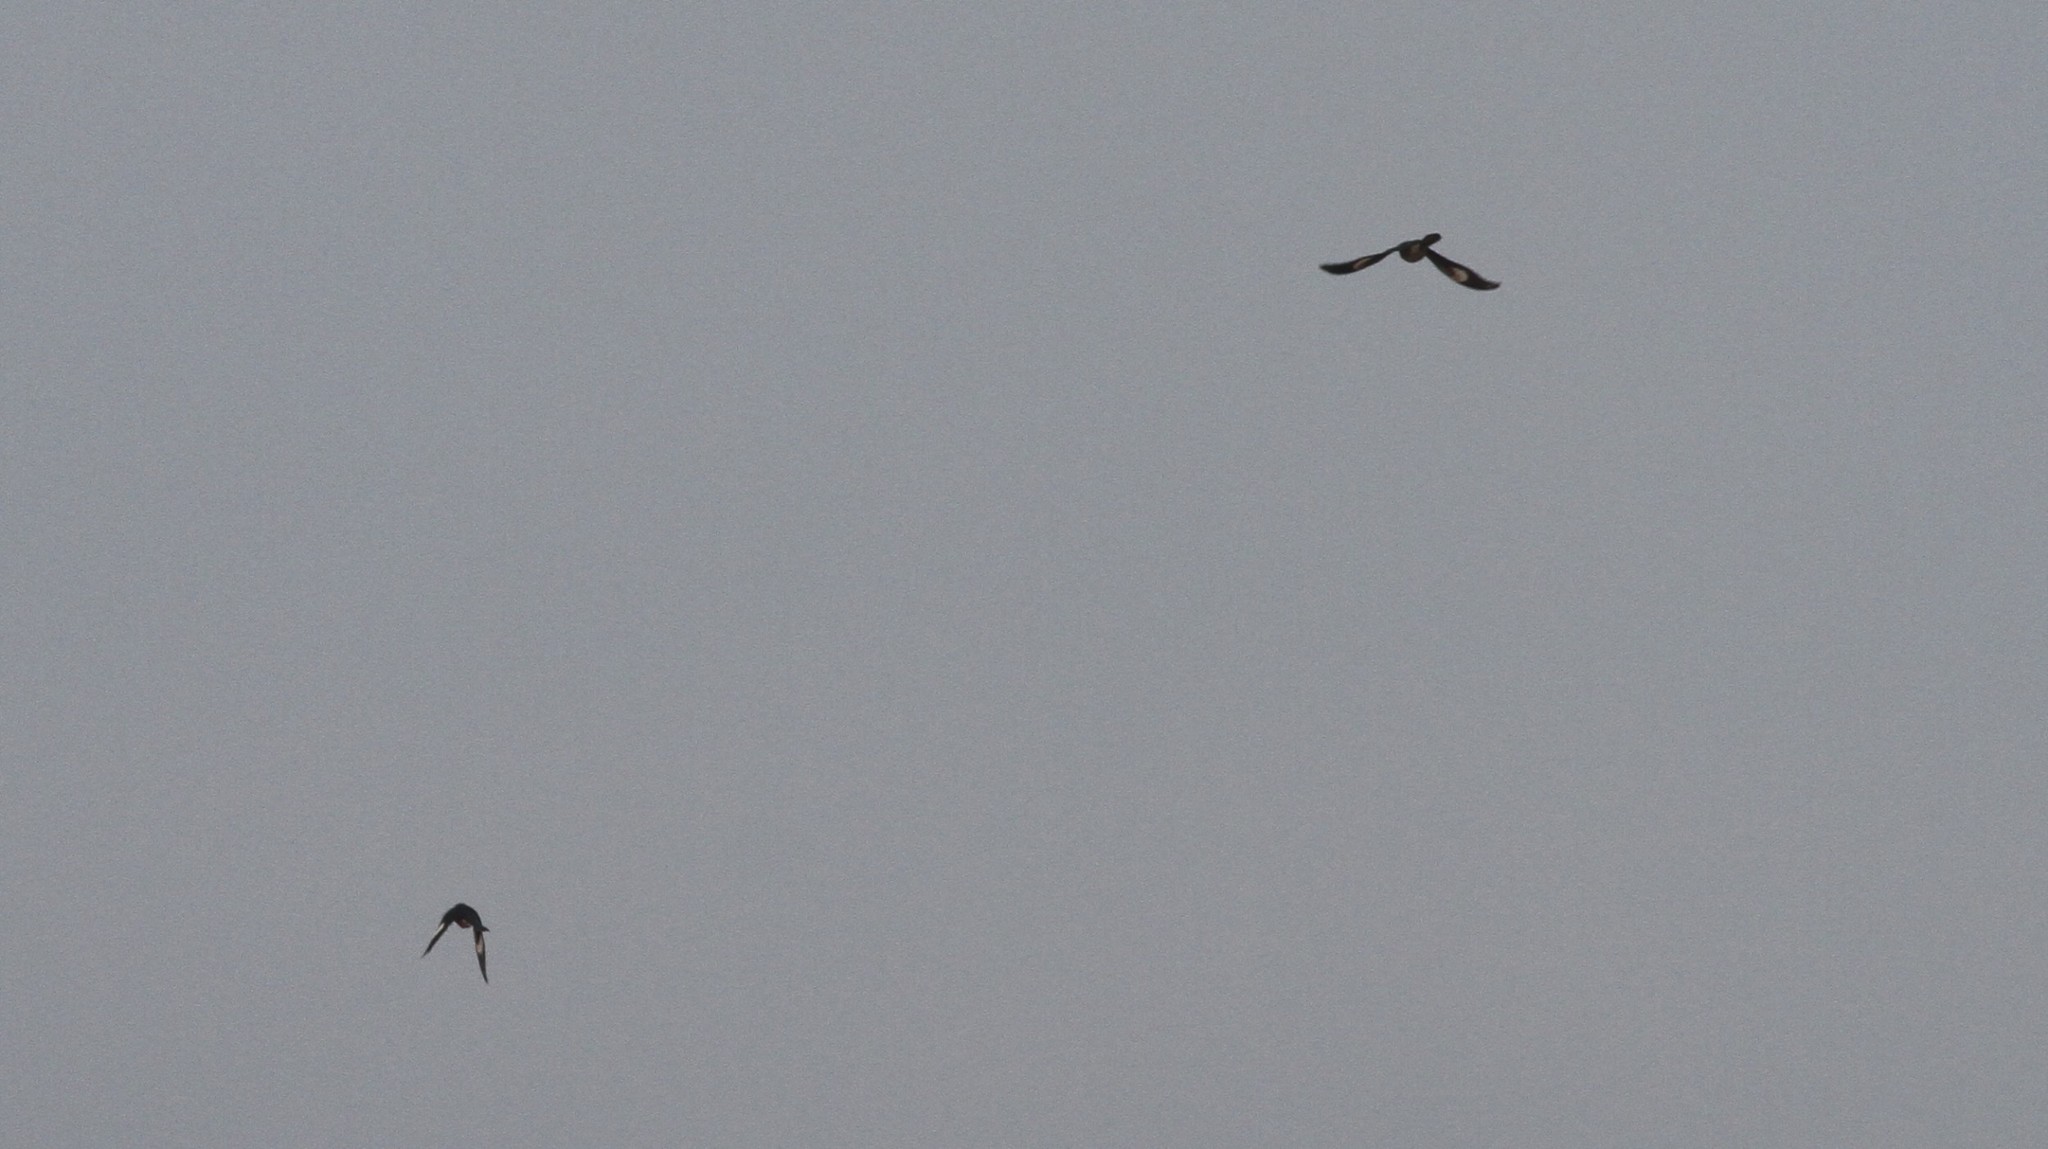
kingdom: Animalia
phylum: Chordata
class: Aves
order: Cuculiformes
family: Cuculidae
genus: Clamator
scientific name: Clamator jacobinus
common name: Jacobin cuckoo
